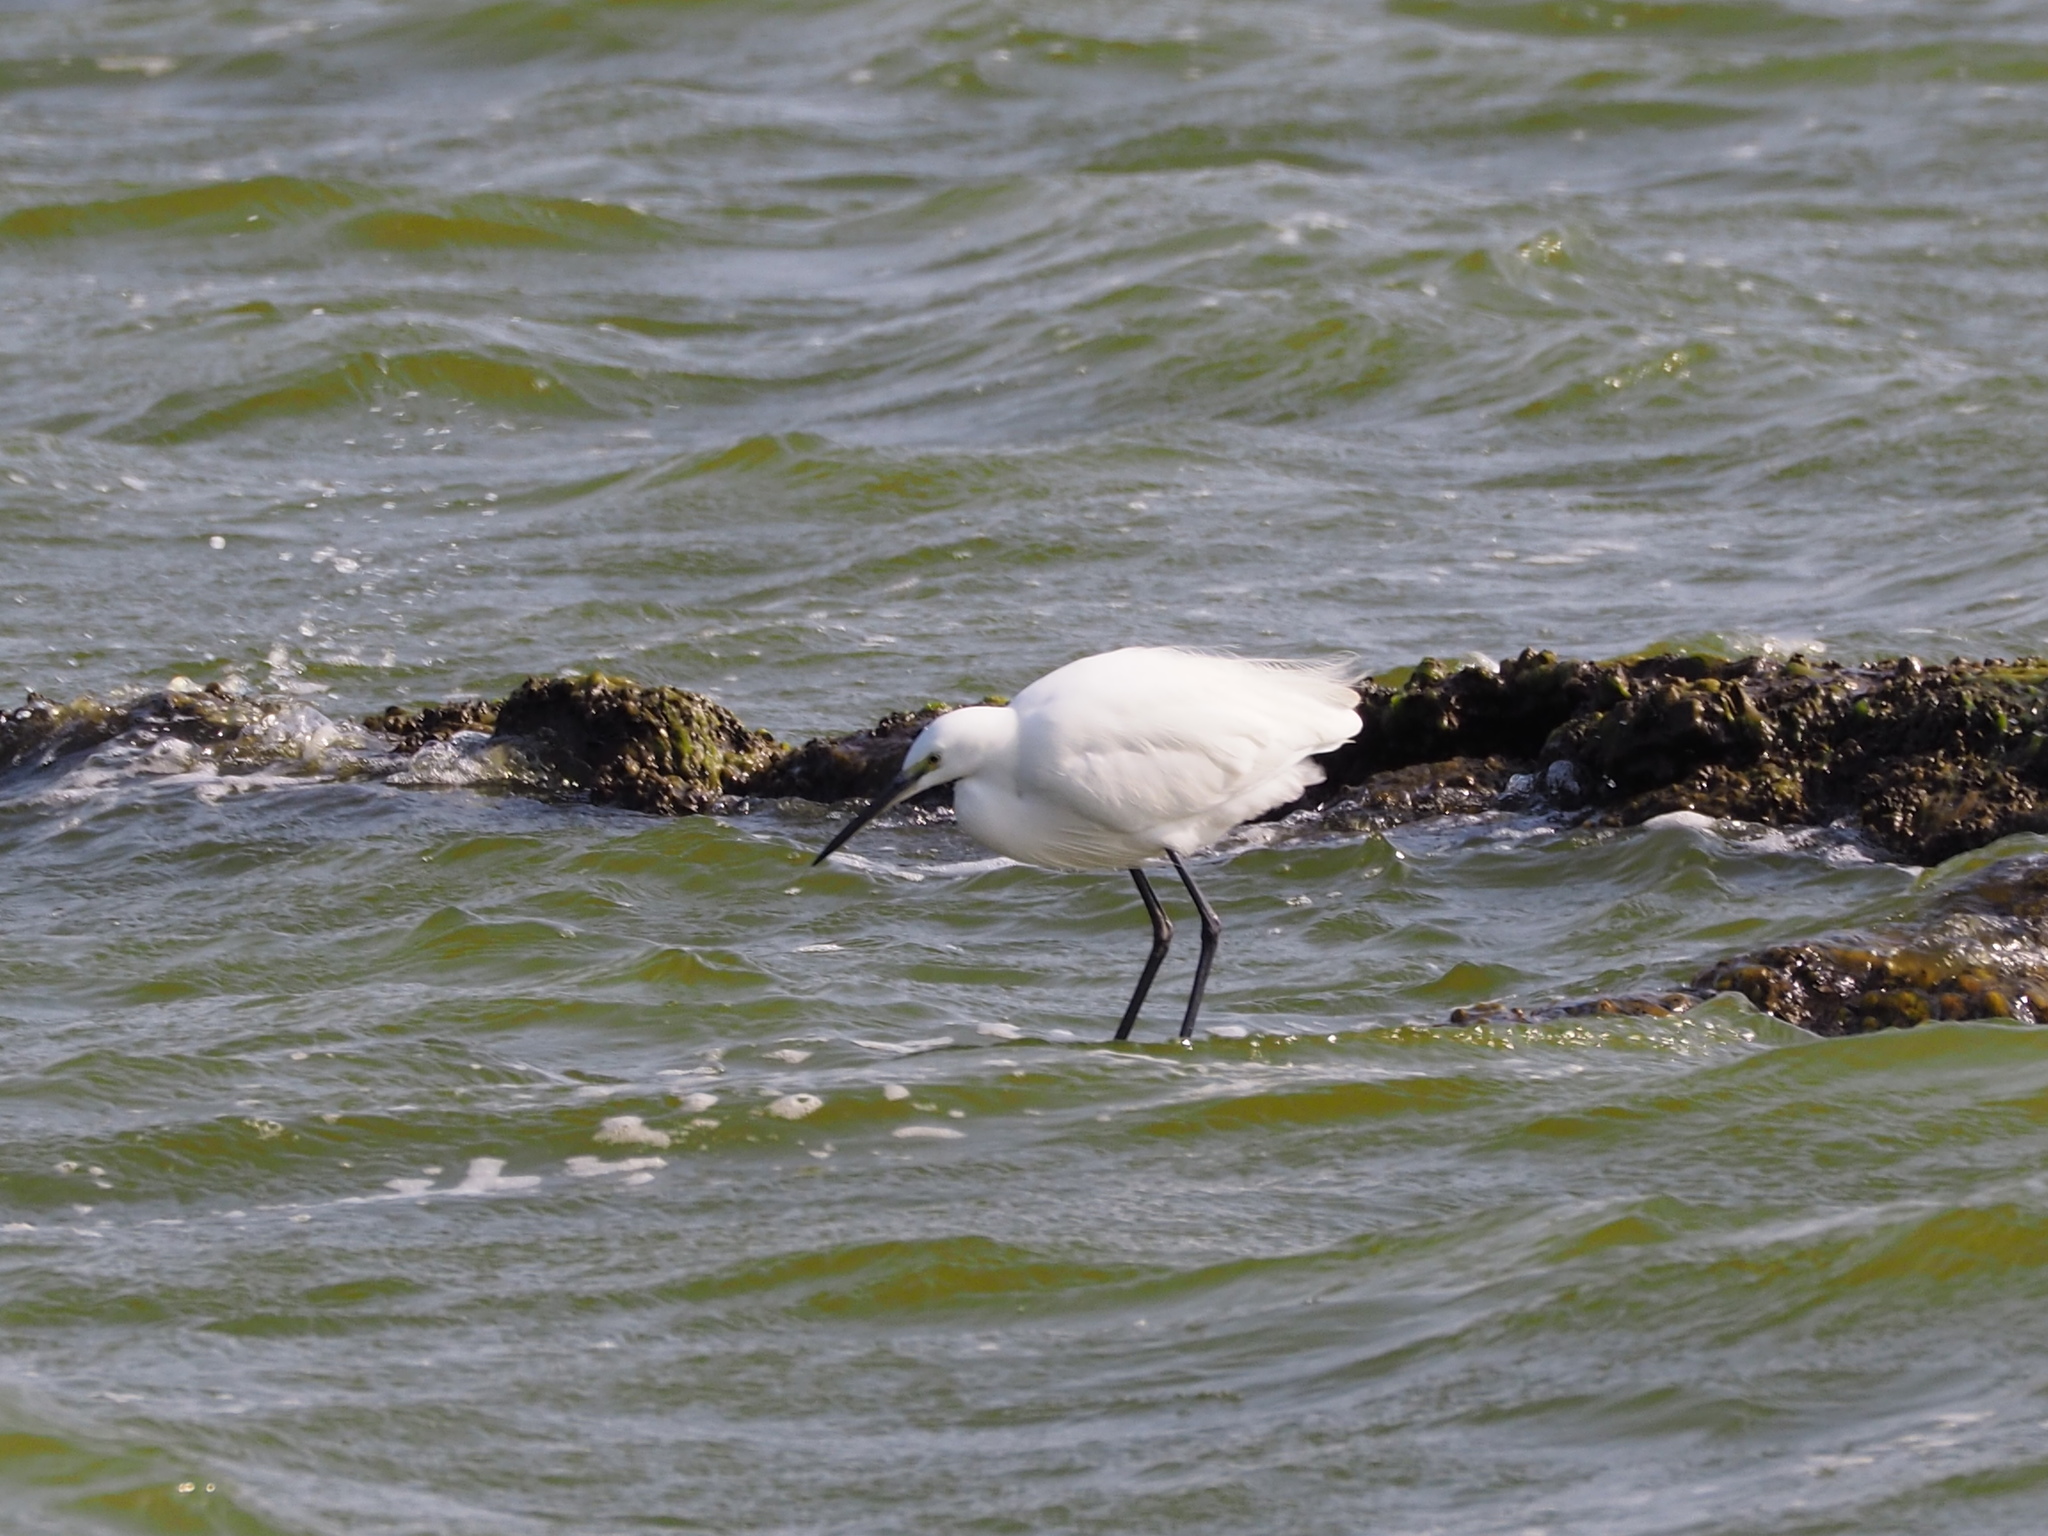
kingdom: Animalia
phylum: Chordata
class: Aves
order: Pelecaniformes
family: Ardeidae
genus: Egretta
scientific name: Egretta garzetta
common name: Little egret
